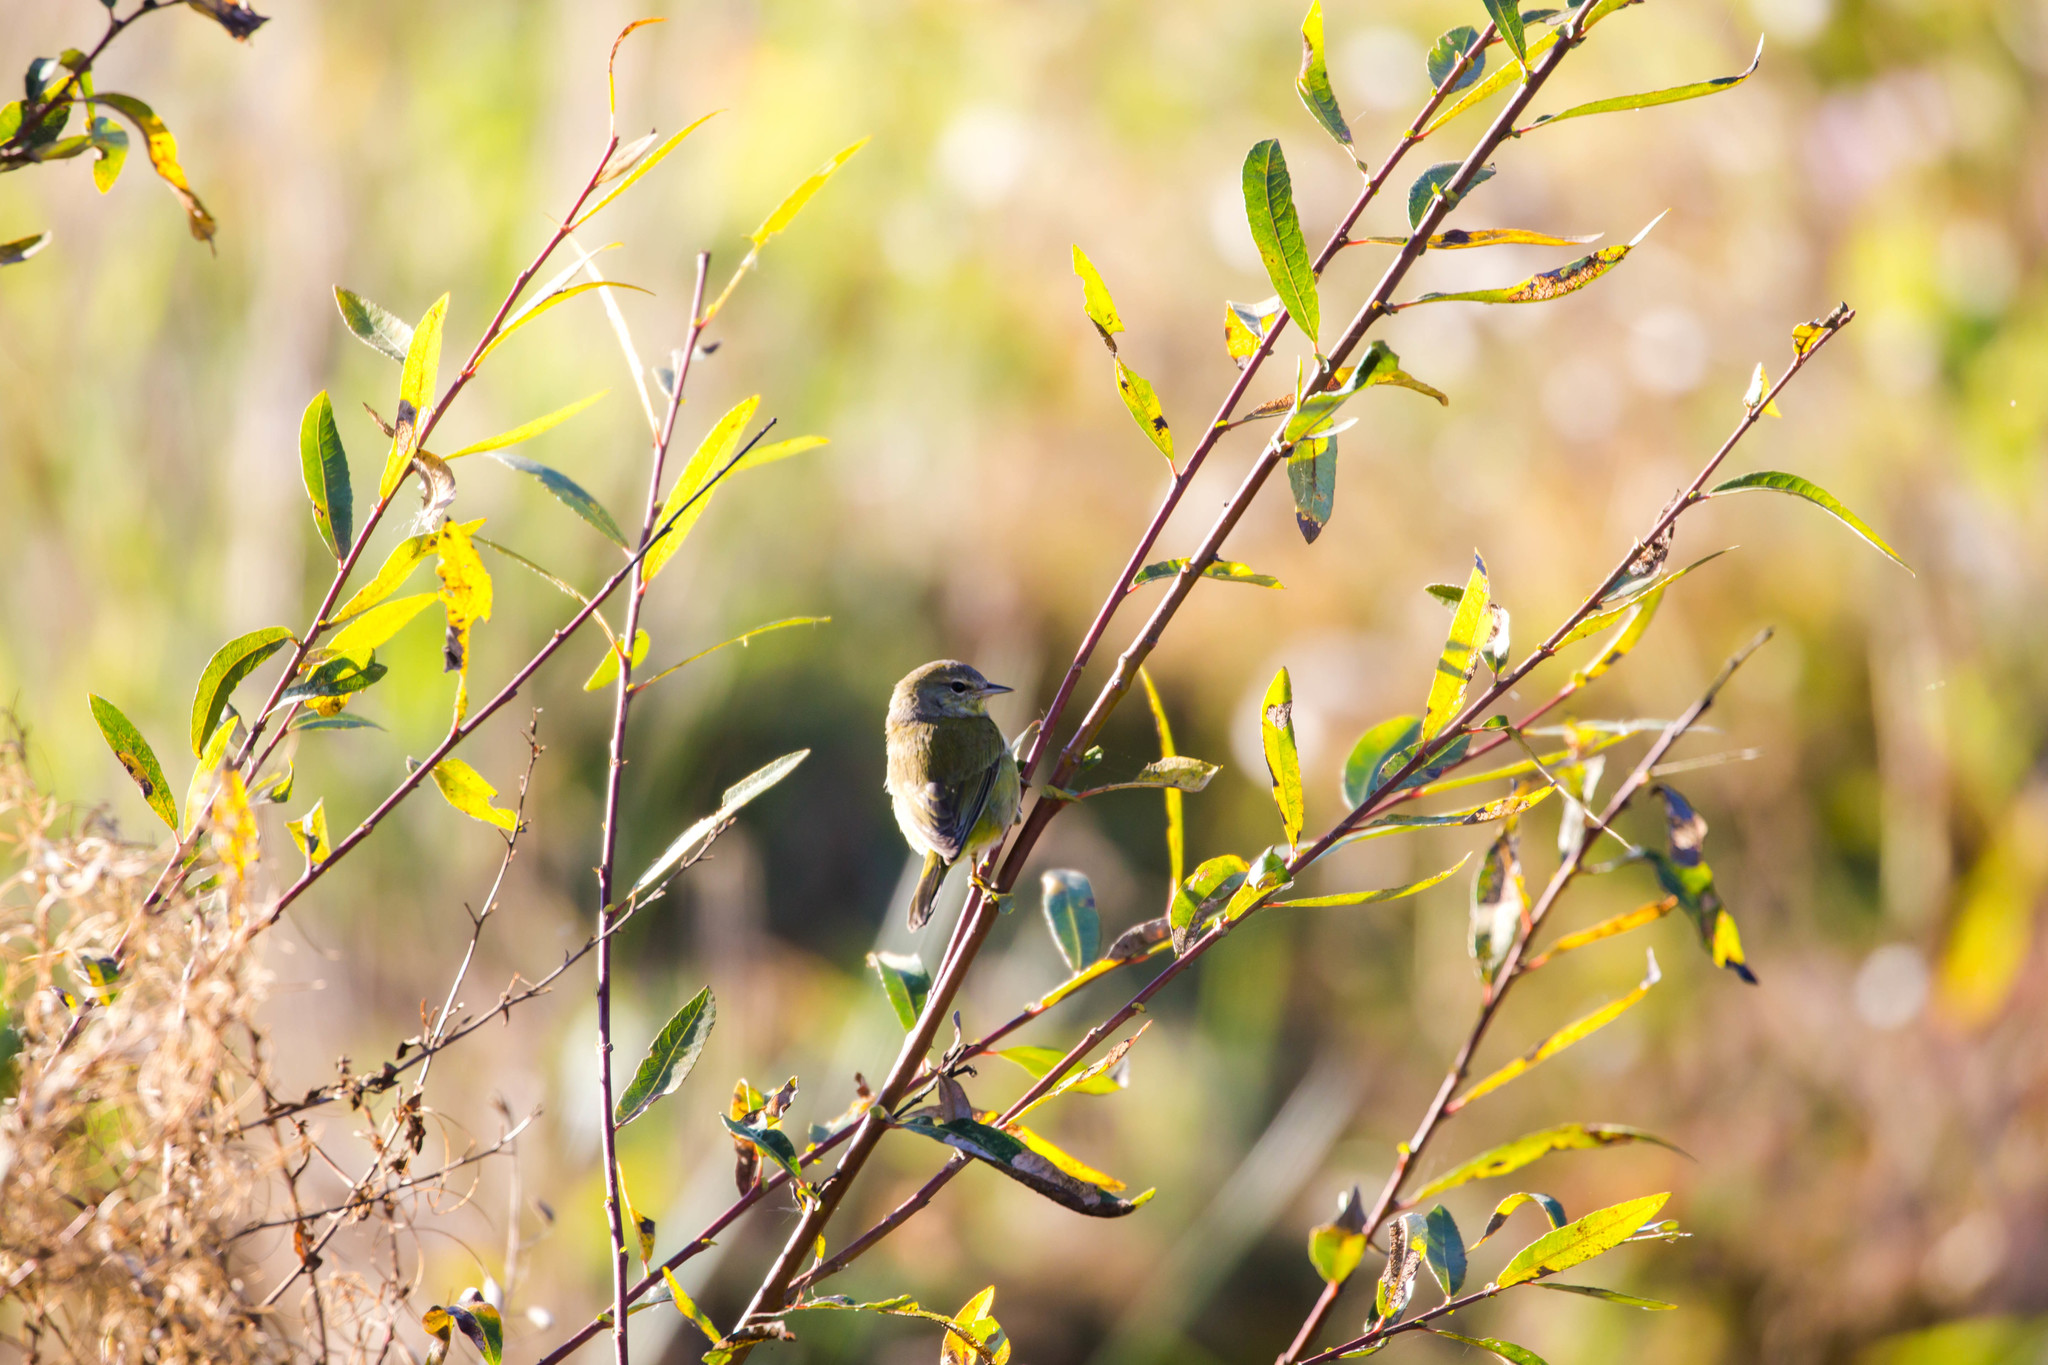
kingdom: Animalia
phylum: Chordata
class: Aves
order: Passeriformes
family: Parulidae
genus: Leiothlypis
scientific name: Leiothlypis celata
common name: Orange-crowned warbler
